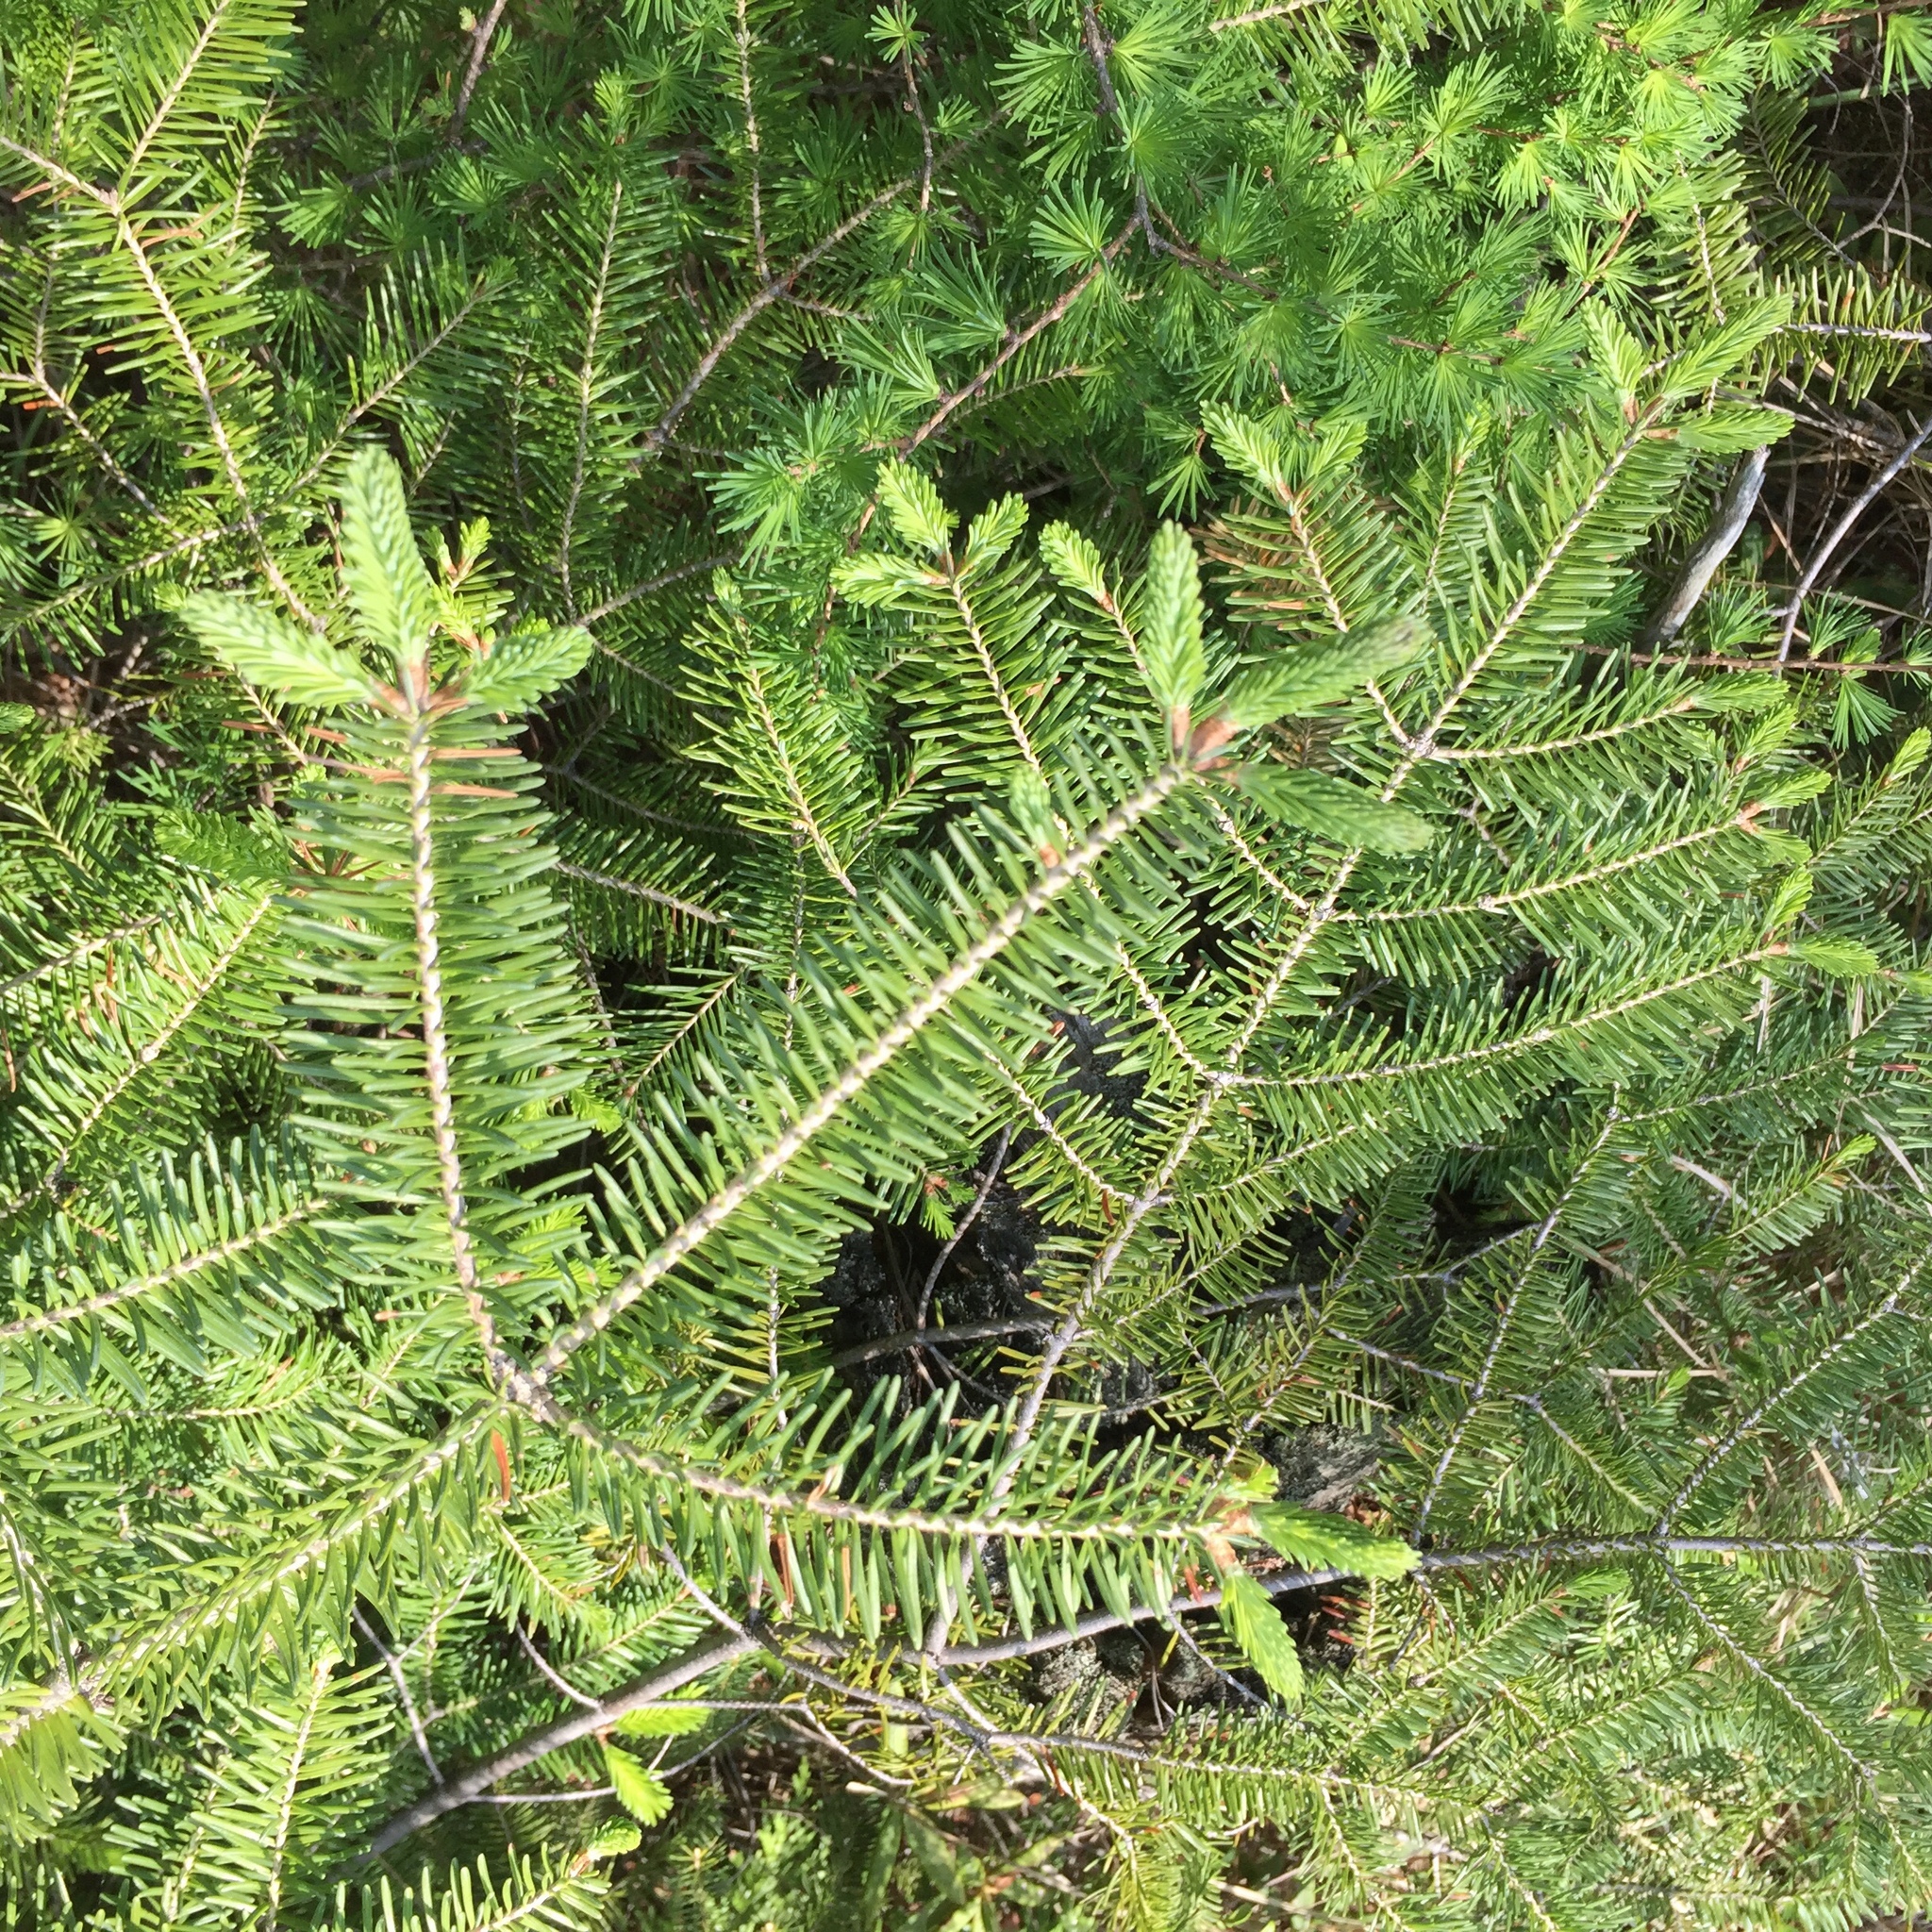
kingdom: Plantae
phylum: Tracheophyta
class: Pinopsida
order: Pinales
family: Pinaceae
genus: Picea
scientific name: Picea glauca
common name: White spruce
